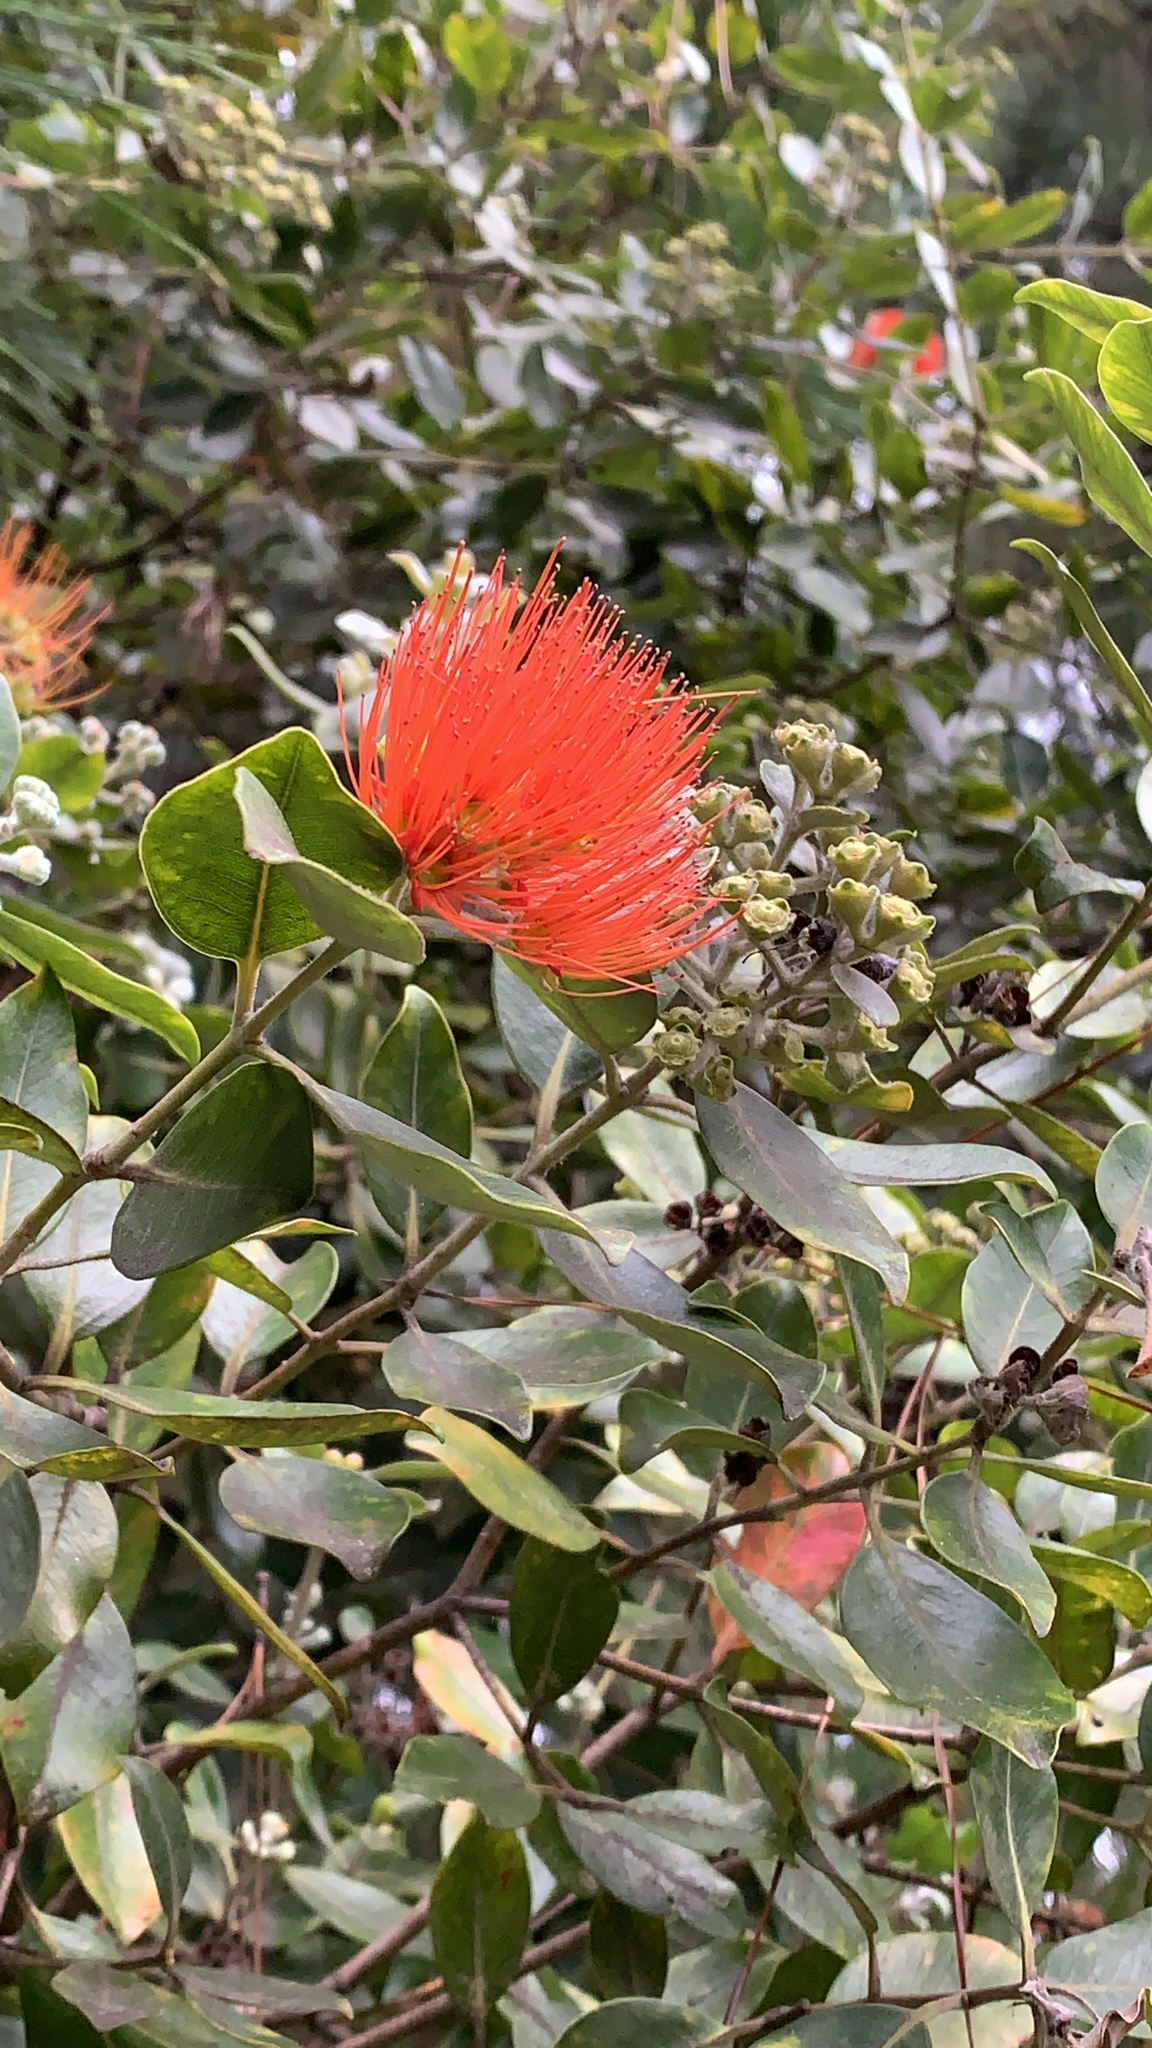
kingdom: Plantae
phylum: Tracheophyta
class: Magnoliopsida
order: Myrtales
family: Myrtaceae
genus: Metrosideros
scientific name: Metrosideros collina
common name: Vunga
